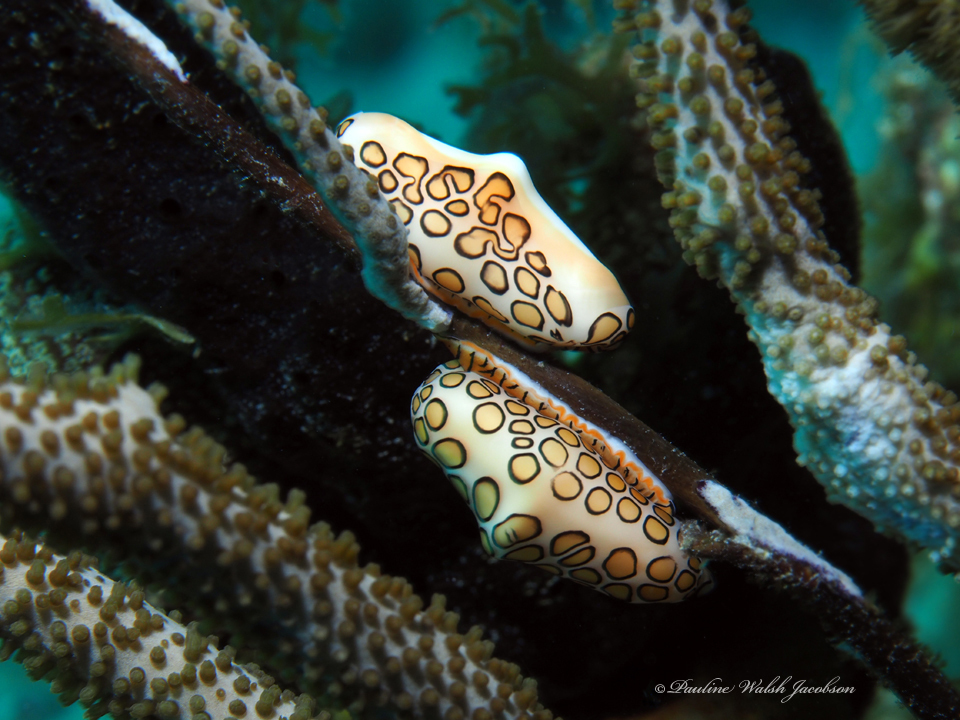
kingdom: Animalia
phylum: Mollusca
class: Gastropoda
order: Littorinimorpha
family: Ovulidae
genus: Cyphoma
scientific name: Cyphoma gibbosum
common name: Flamingo tongue
